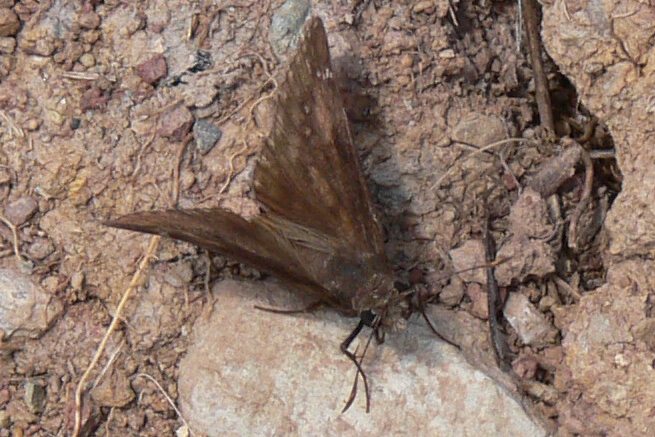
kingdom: Animalia
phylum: Arthropoda
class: Insecta
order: Lepidoptera
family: Hesperiidae
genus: Erynnis
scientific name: Erynnis baptisiae
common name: Wild indigo duskywing
